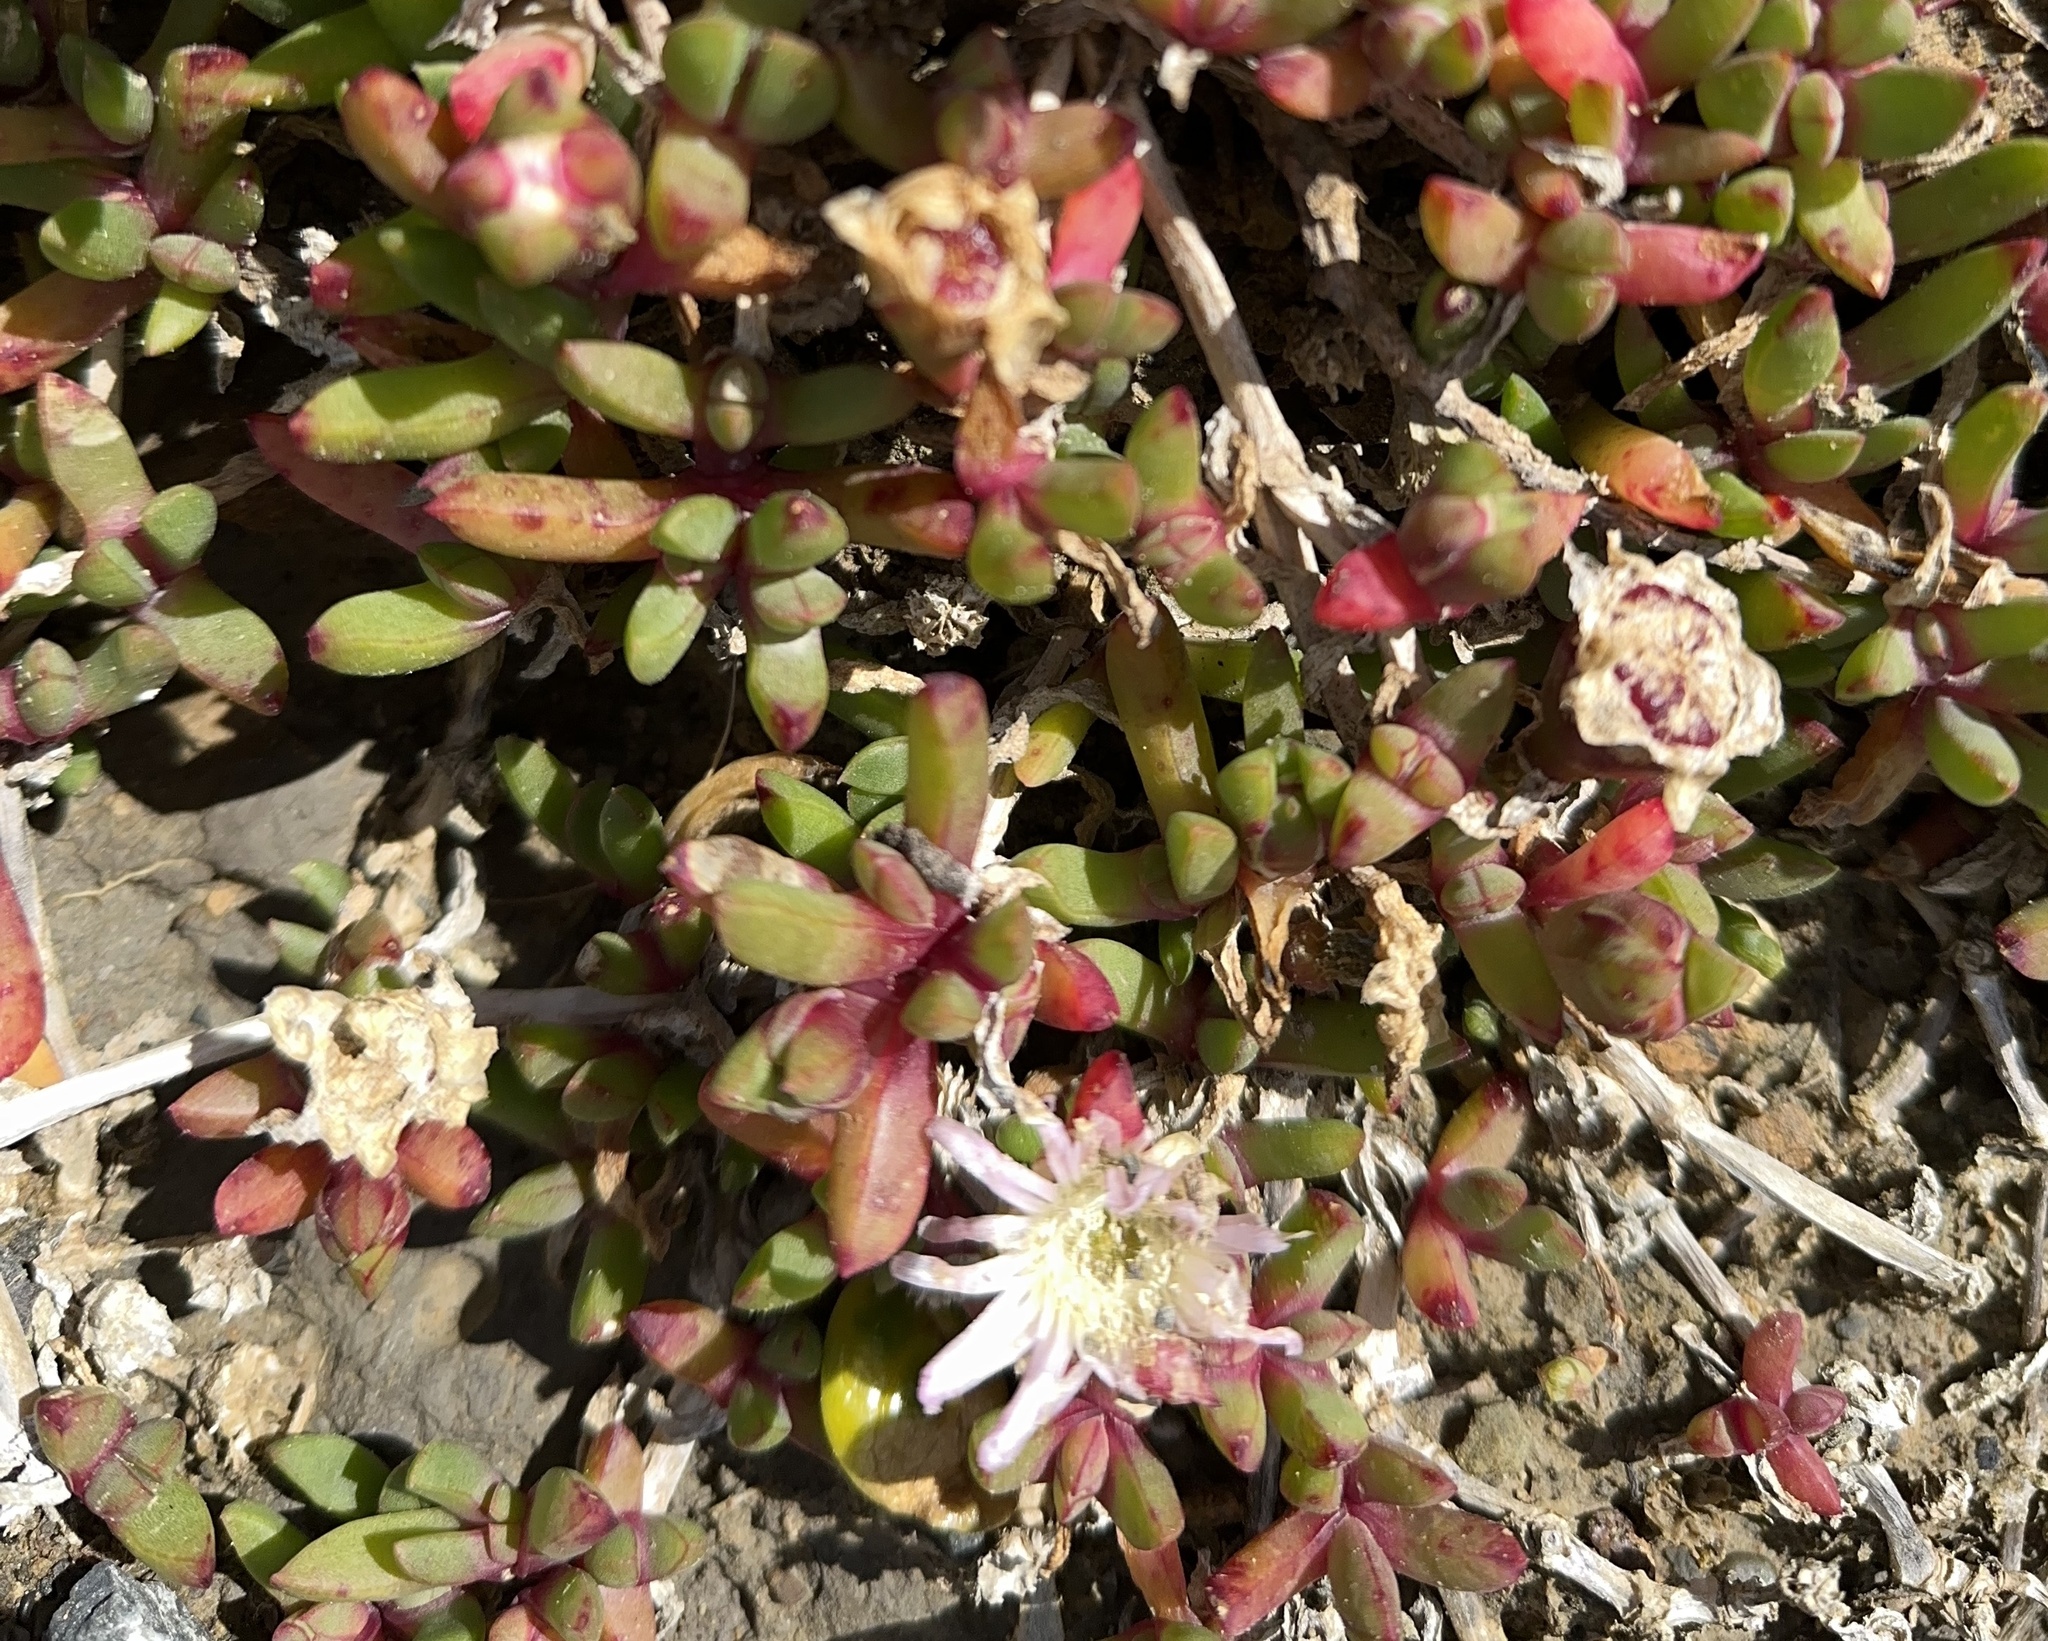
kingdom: Plantae
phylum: Tracheophyta
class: Magnoliopsida
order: Caryophyllales
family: Aizoaceae
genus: Disphyma
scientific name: Disphyma australe
